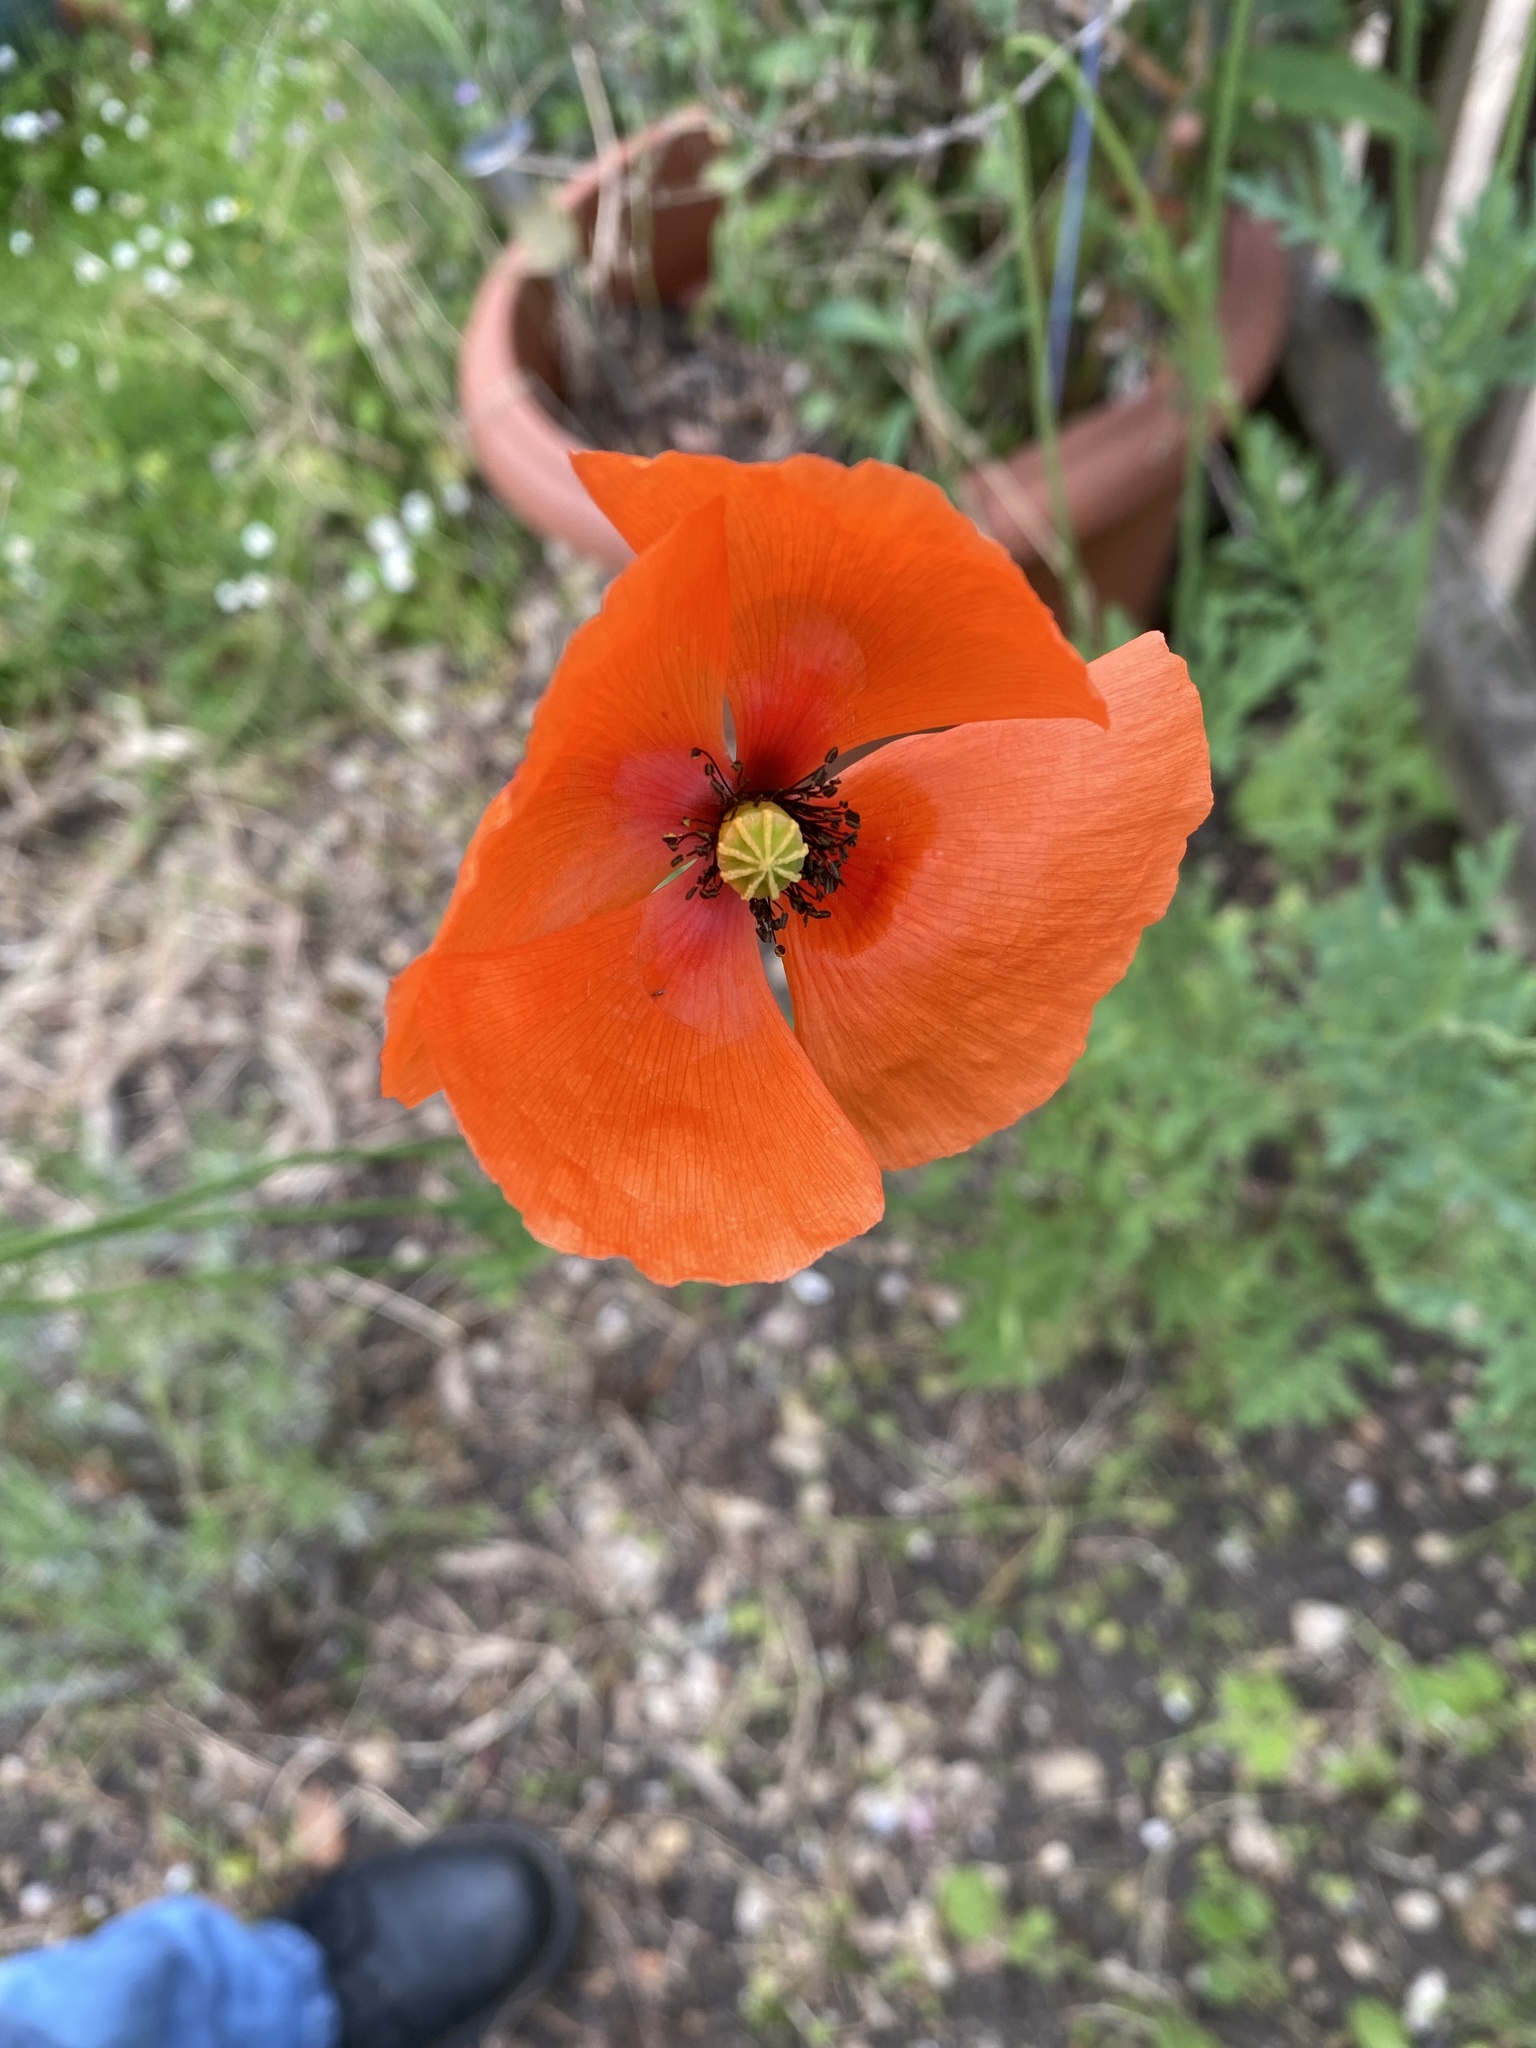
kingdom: Plantae
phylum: Tracheophyta
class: Magnoliopsida
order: Ranunculales
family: Papaveraceae
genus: Papaver
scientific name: Papaver dubium
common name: Long-headed poppy
